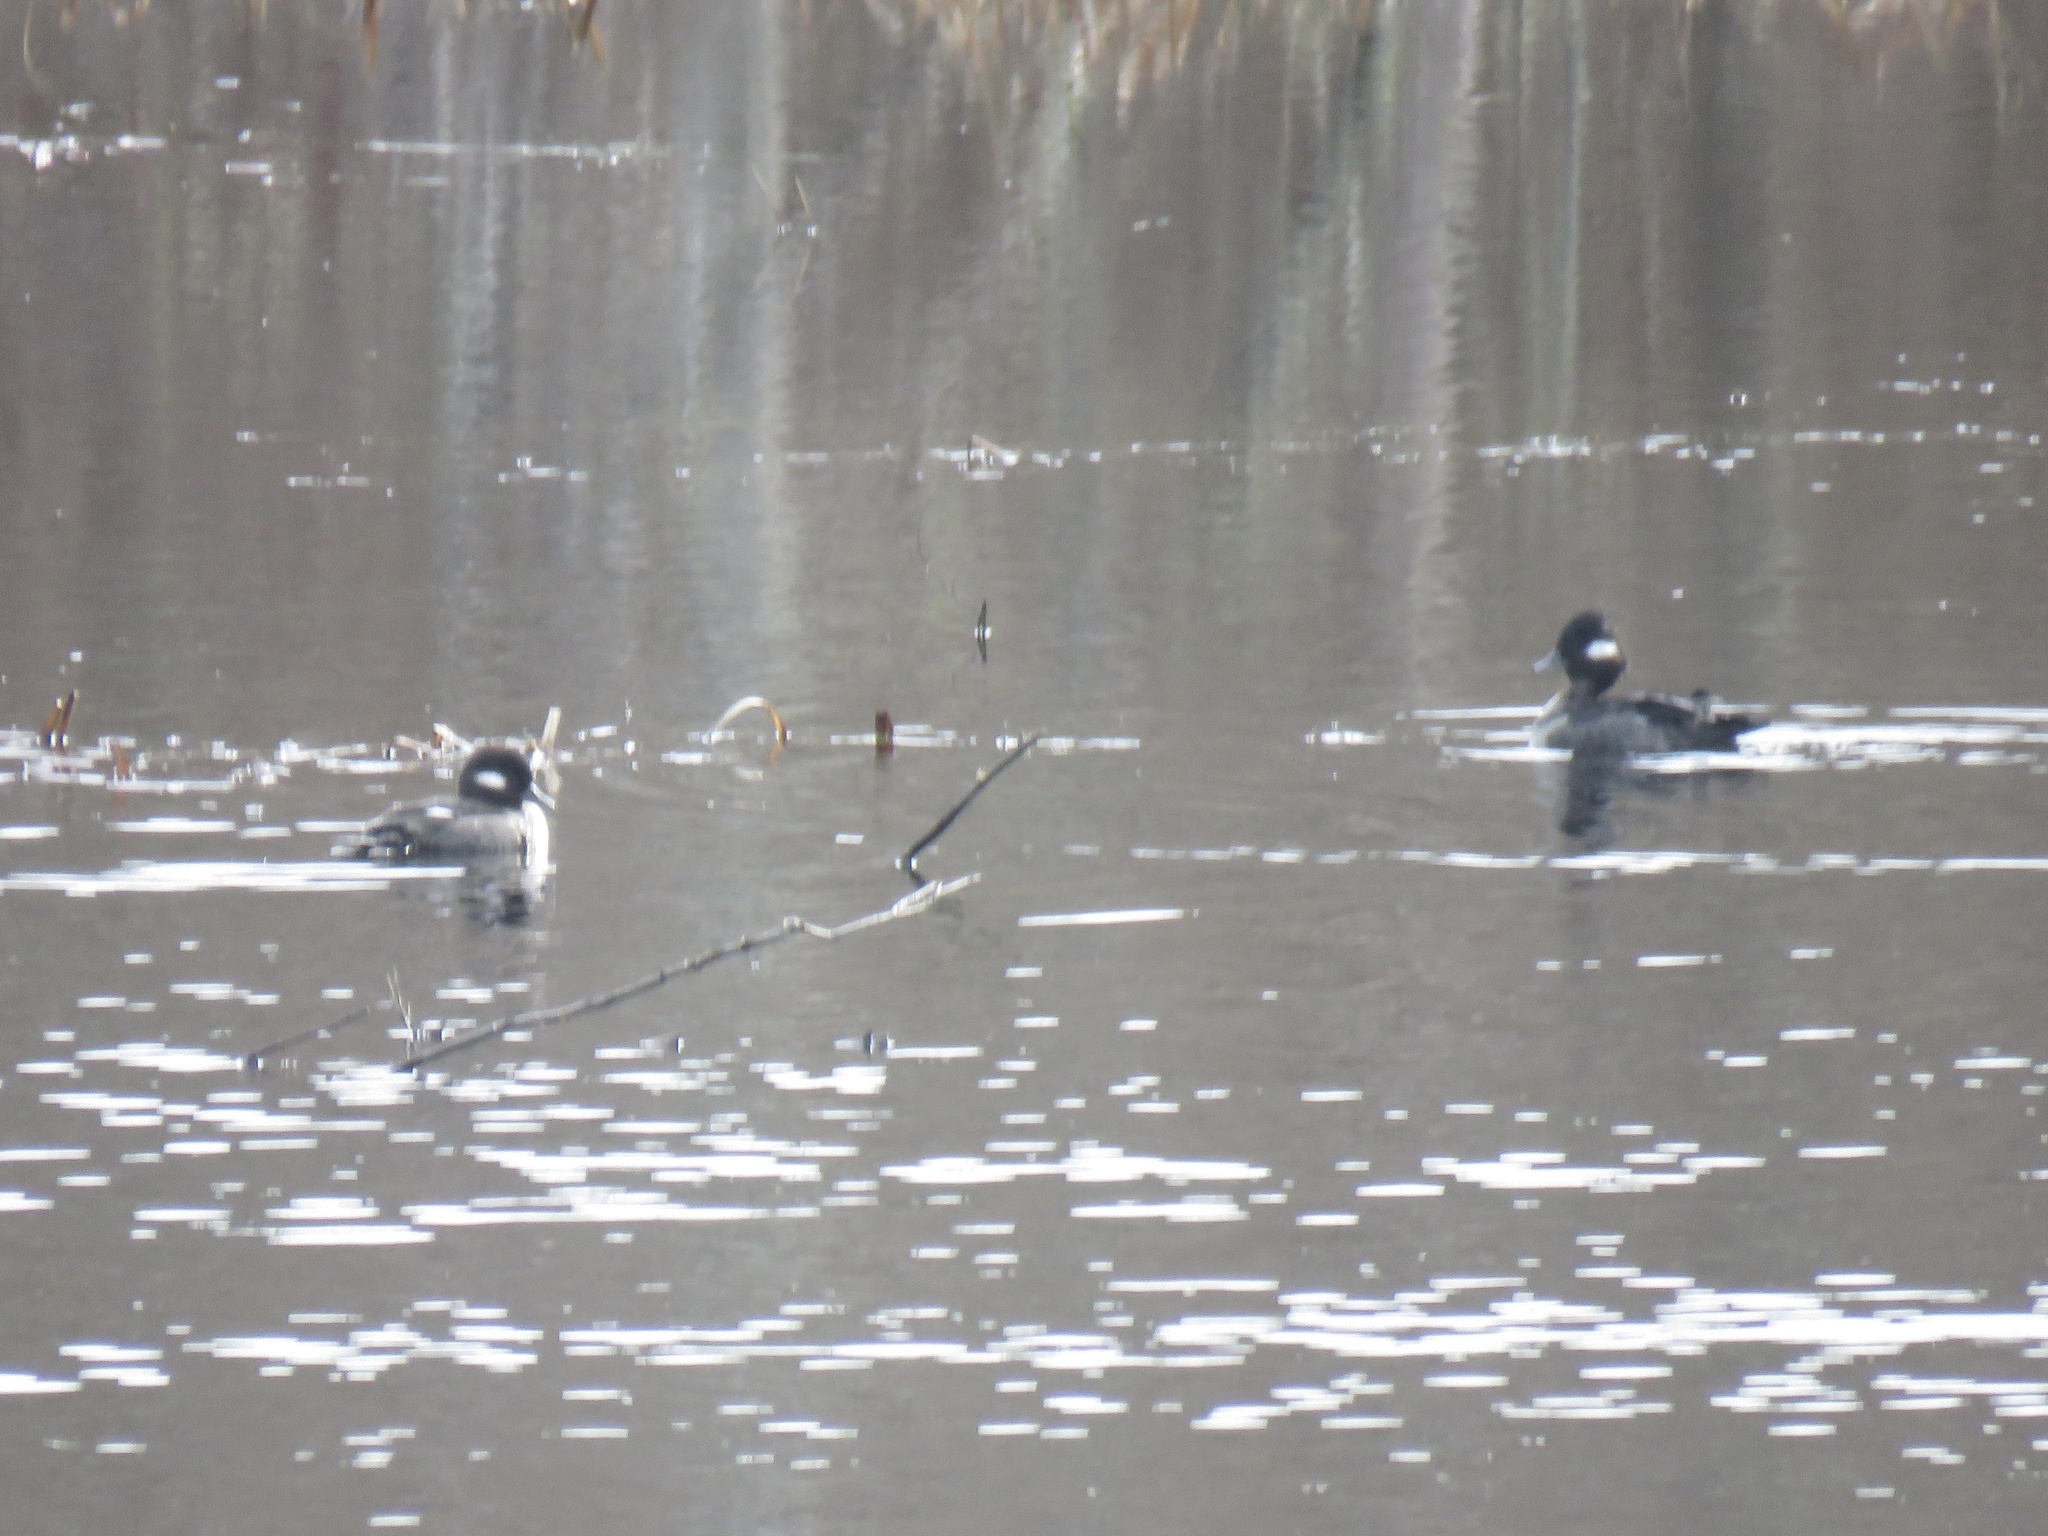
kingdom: Animalia
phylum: Chordata
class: Aves
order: Anseriformes
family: Anatidae
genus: Bucephala
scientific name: Bucephala albeola
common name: Bufflehead
